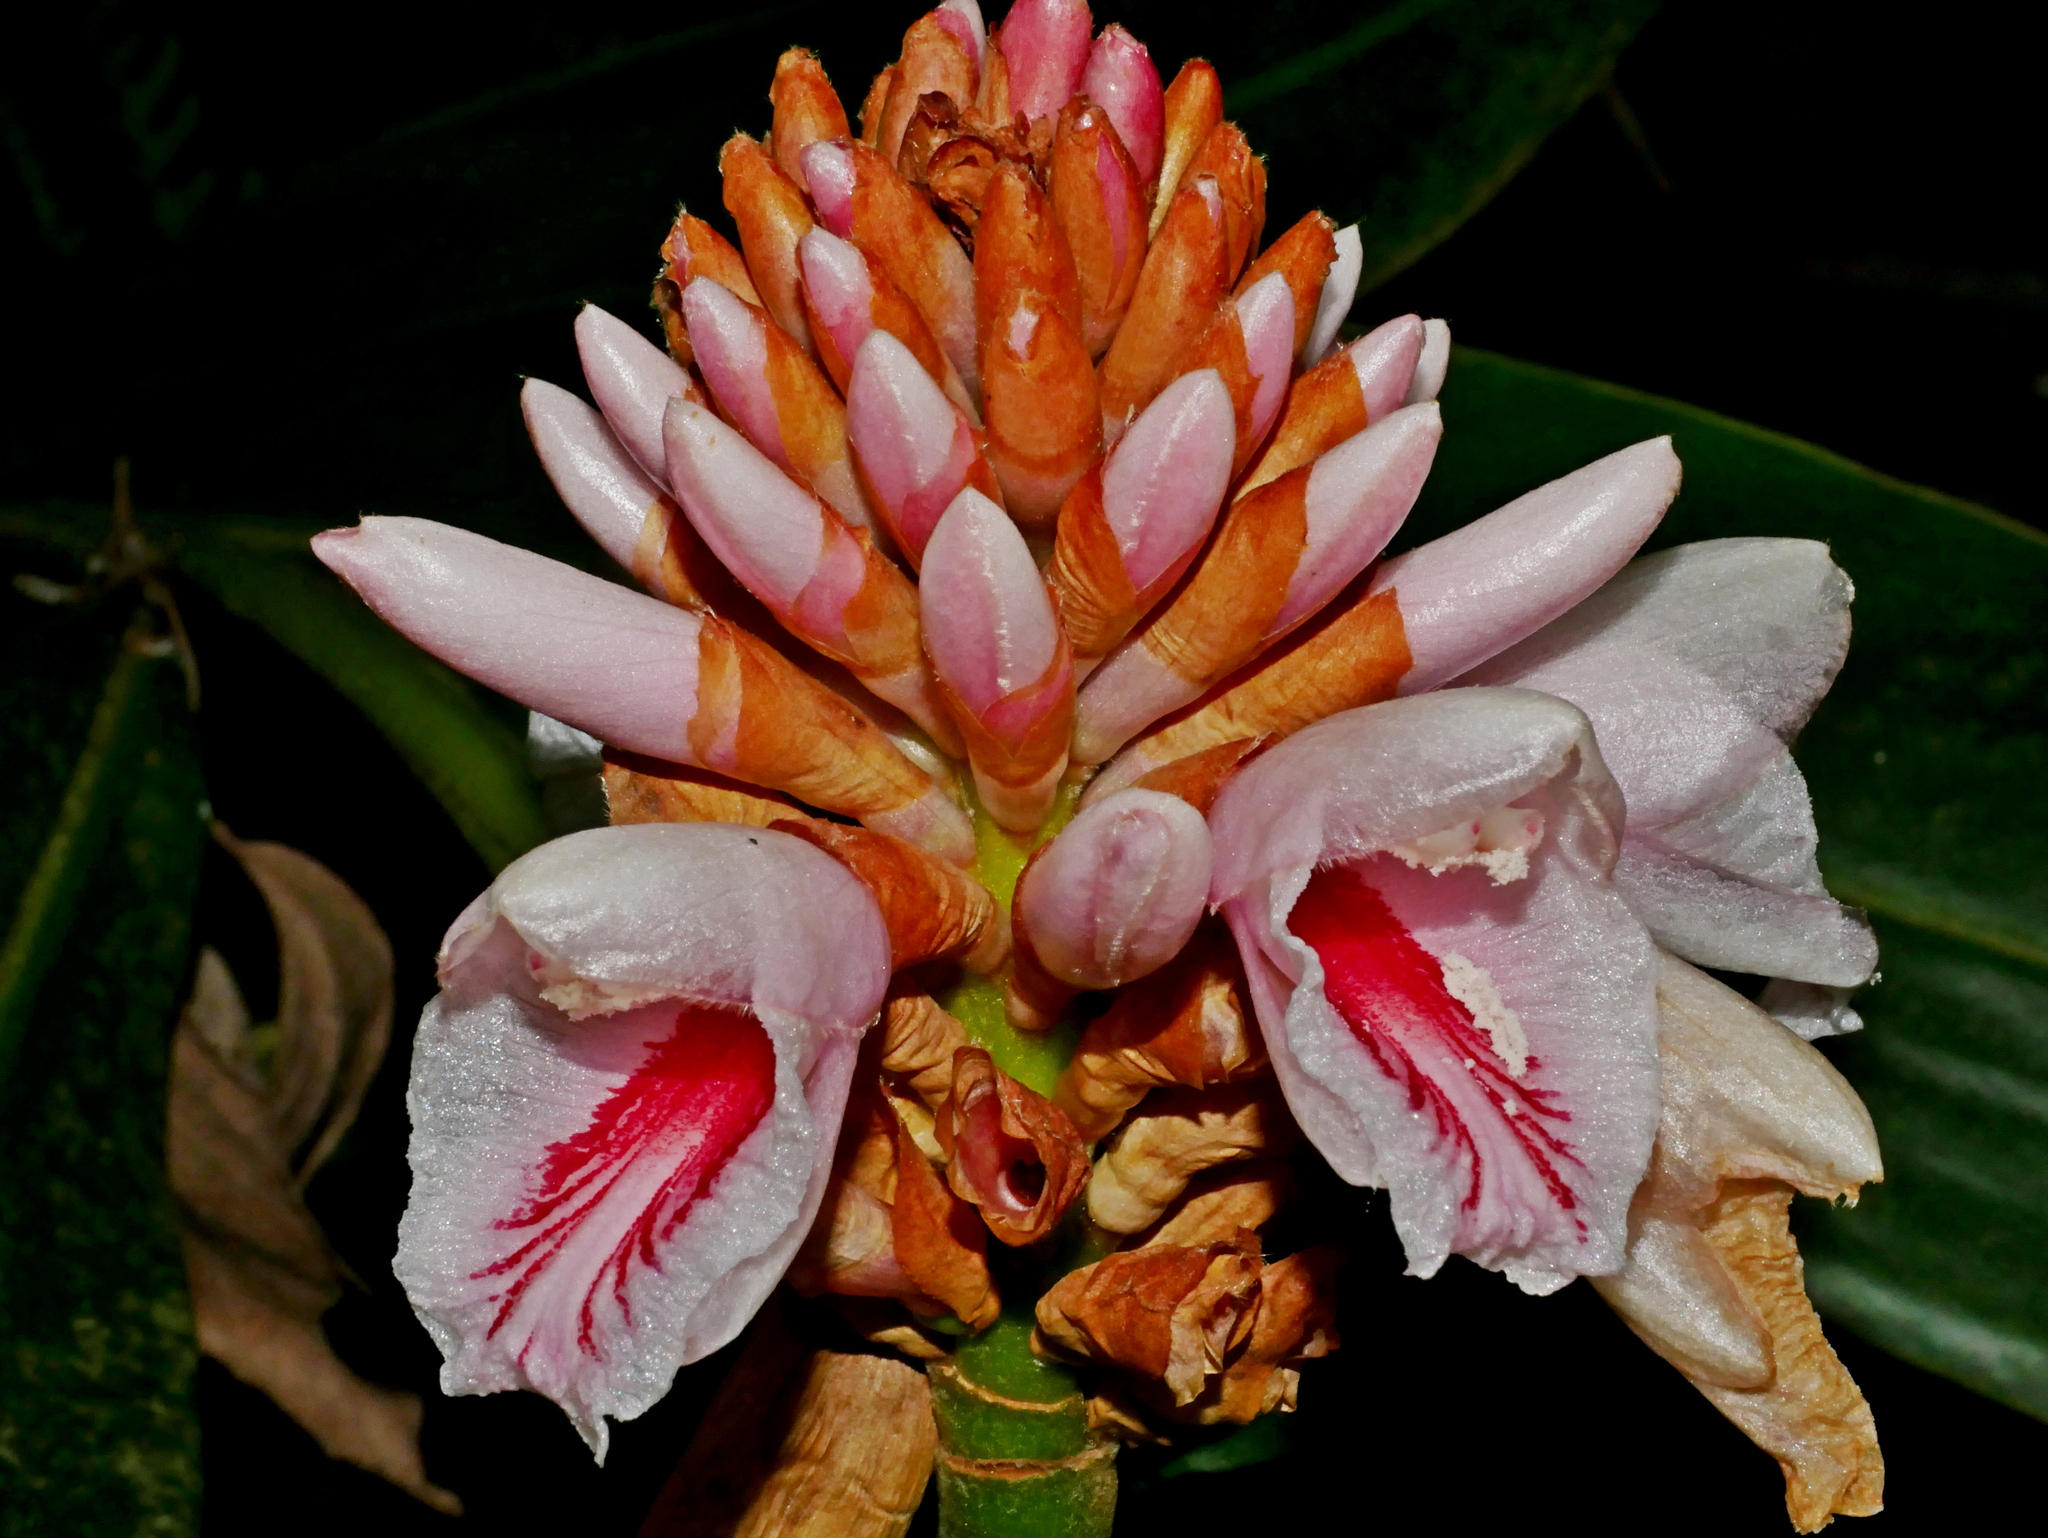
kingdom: Plantae
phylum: Tracheophyta
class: Liliopsida
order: Zingiberales
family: Zingiberaceae
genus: Alpinia
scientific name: Alpinia shimadae
